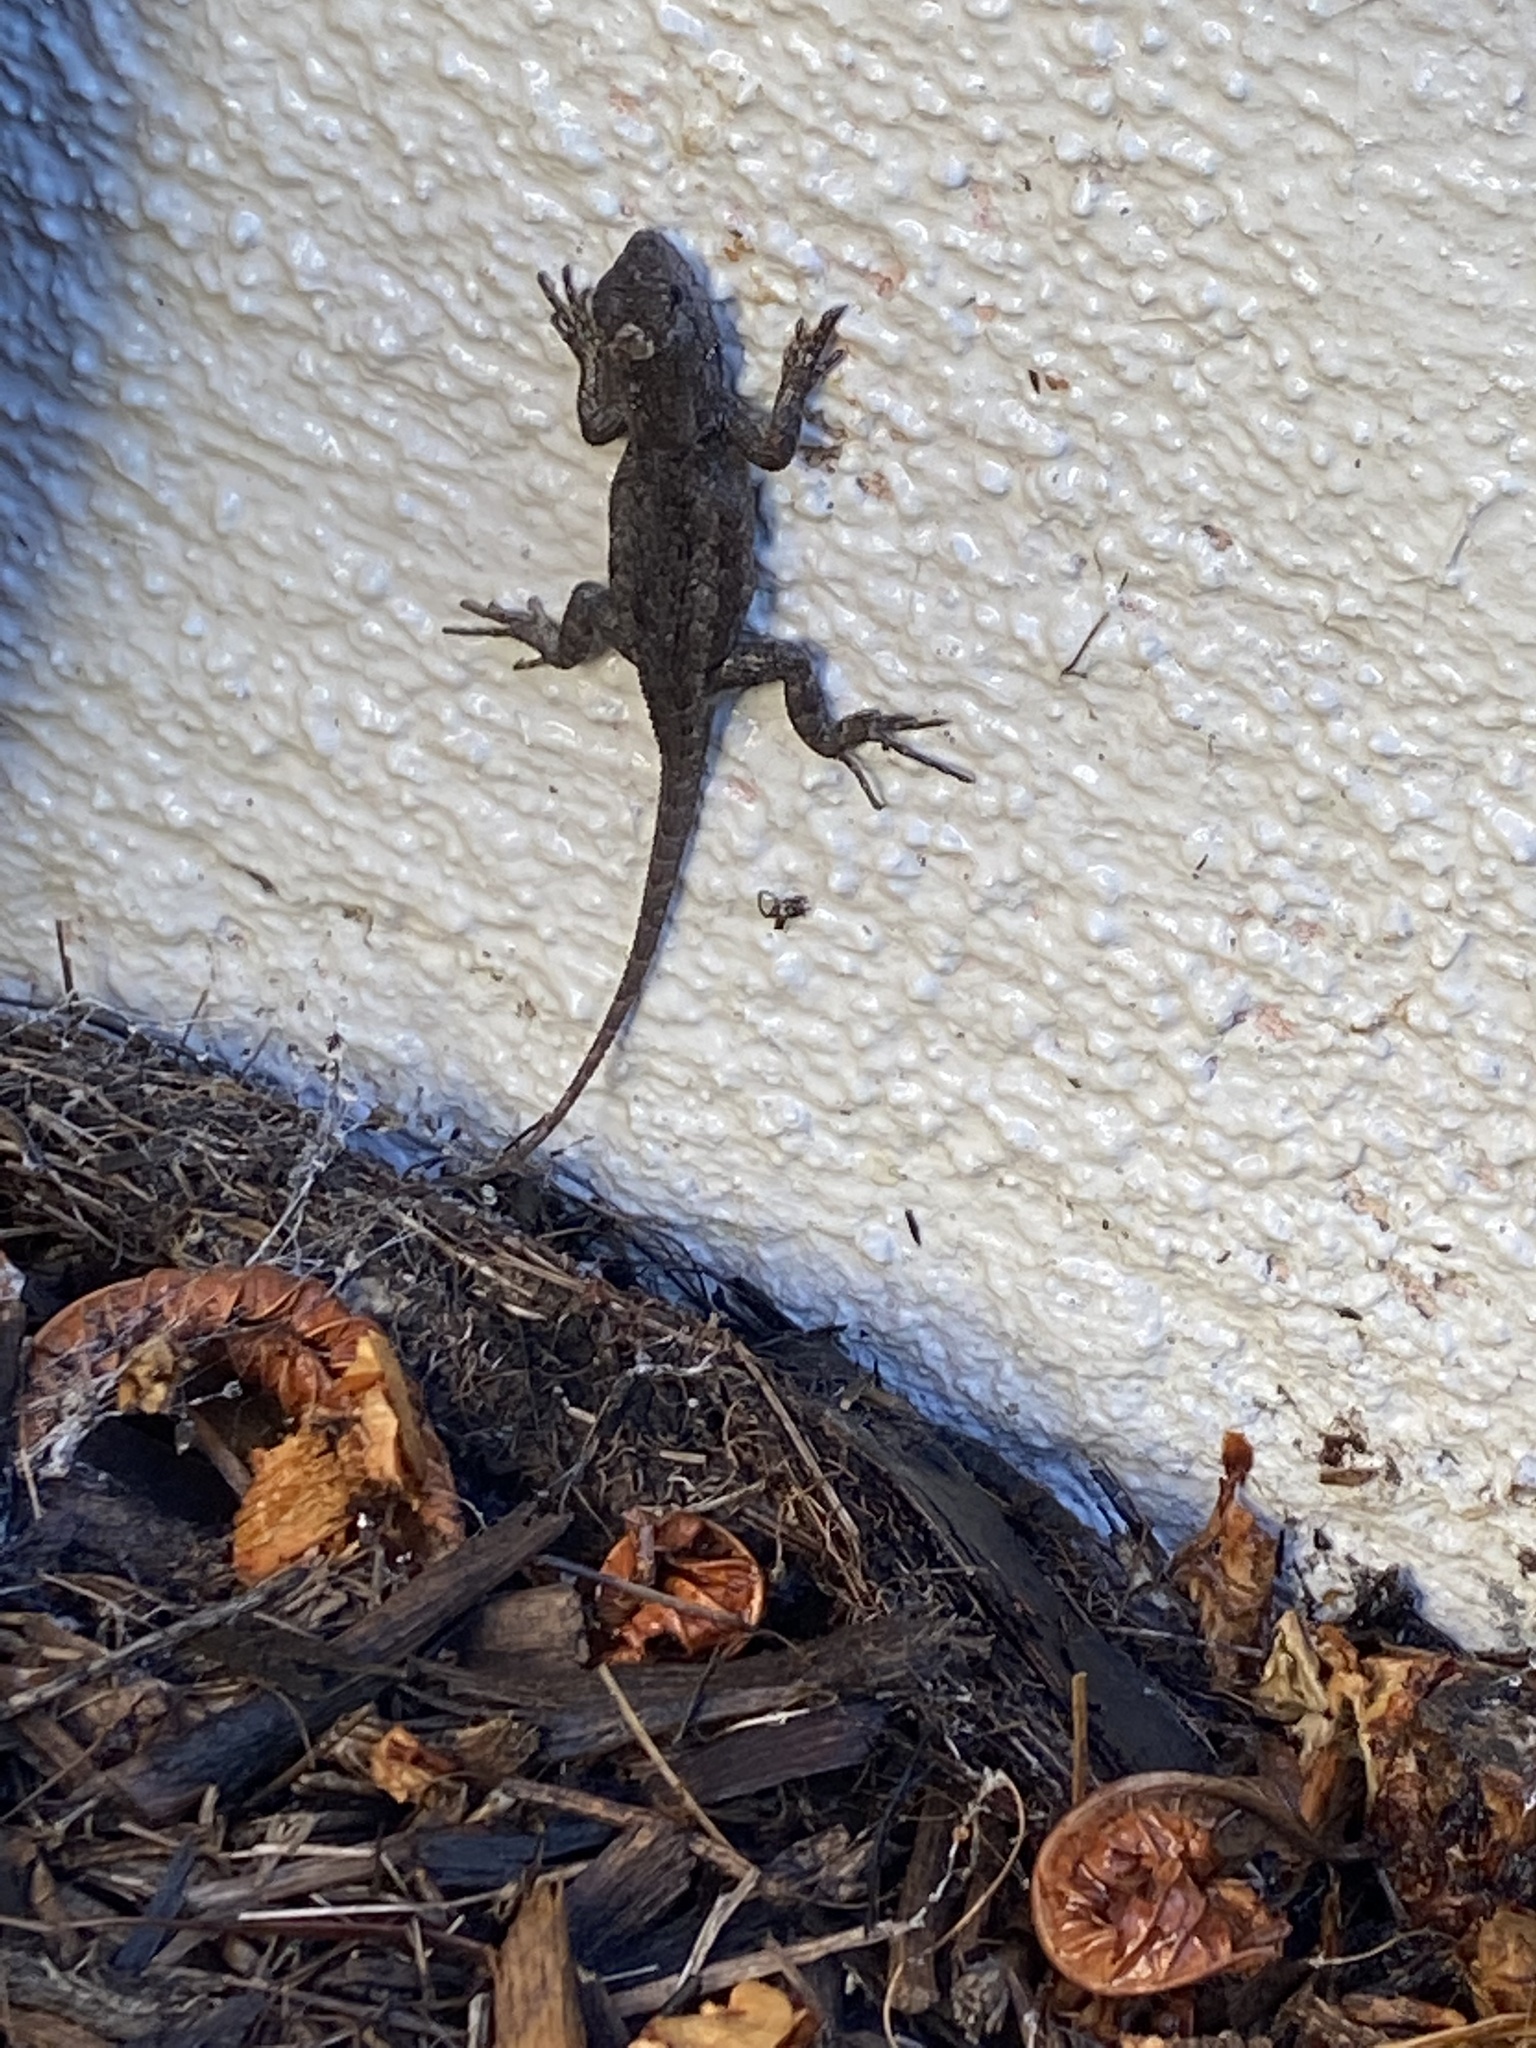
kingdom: Animalia
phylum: Chordata
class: Squamata
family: Phrynosomatidae
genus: Sceloporus
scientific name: Sceloporus occidentalis
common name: Western fence lizard
